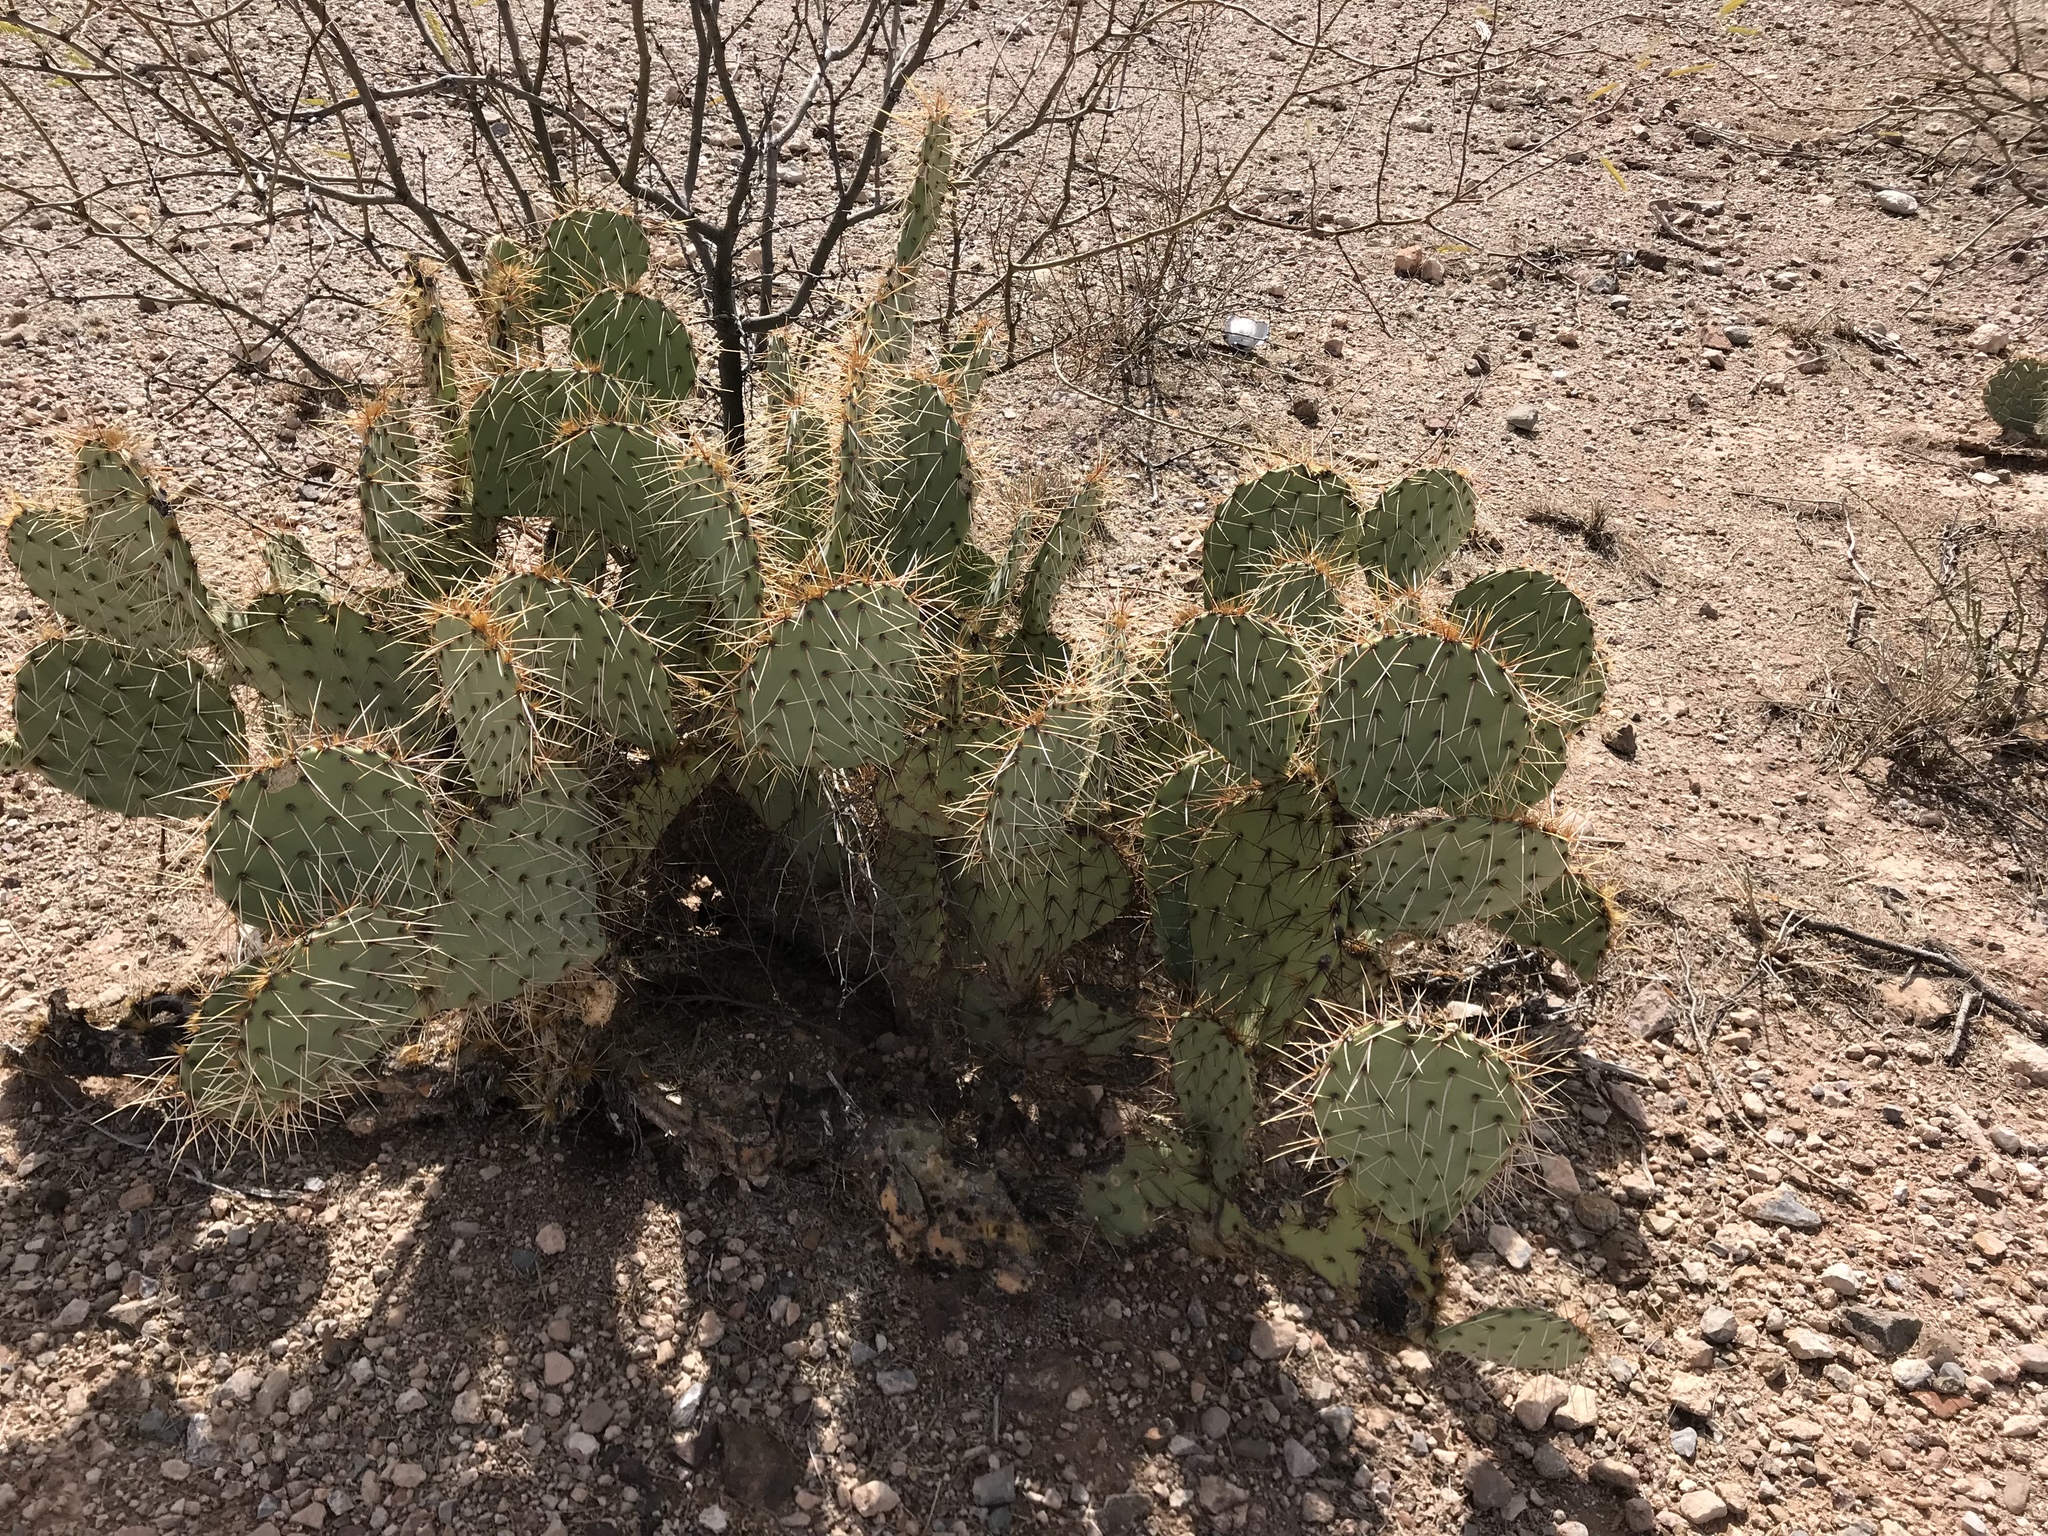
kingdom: Plantae
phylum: Tracheophyta
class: Magnoliopsida
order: Caryophyllales
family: Cactaceae
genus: Opuntia
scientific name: Opuntia phaeacantha
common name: New mexico prickly-pear
